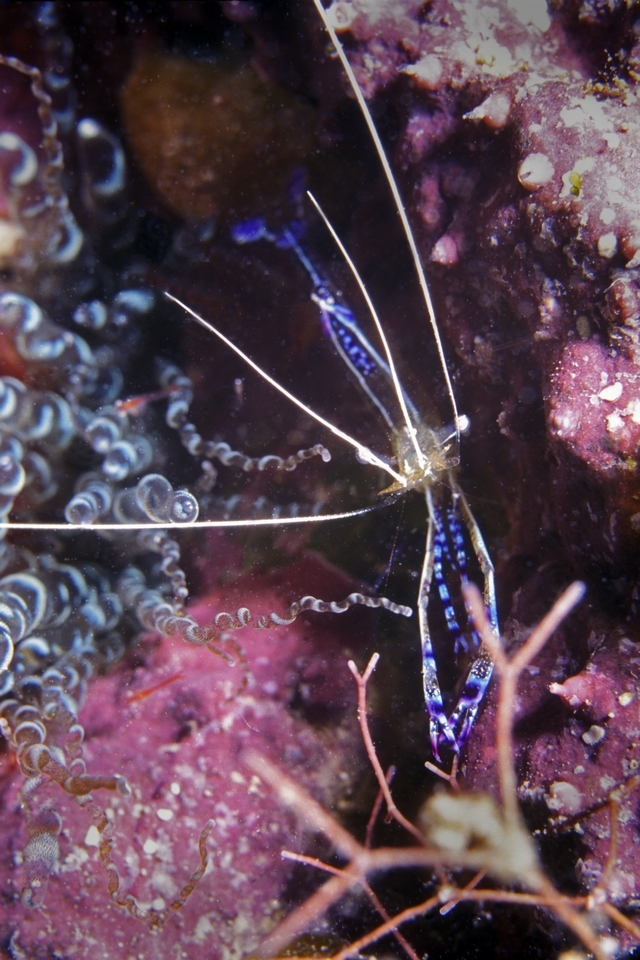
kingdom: Animalia
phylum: Arthropoda
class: Malacostraca
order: Decapoda
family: Palaemonidae
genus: Ancylomenes
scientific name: Ancylomenes pedersoni
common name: Pederson's cleaning shrimp
